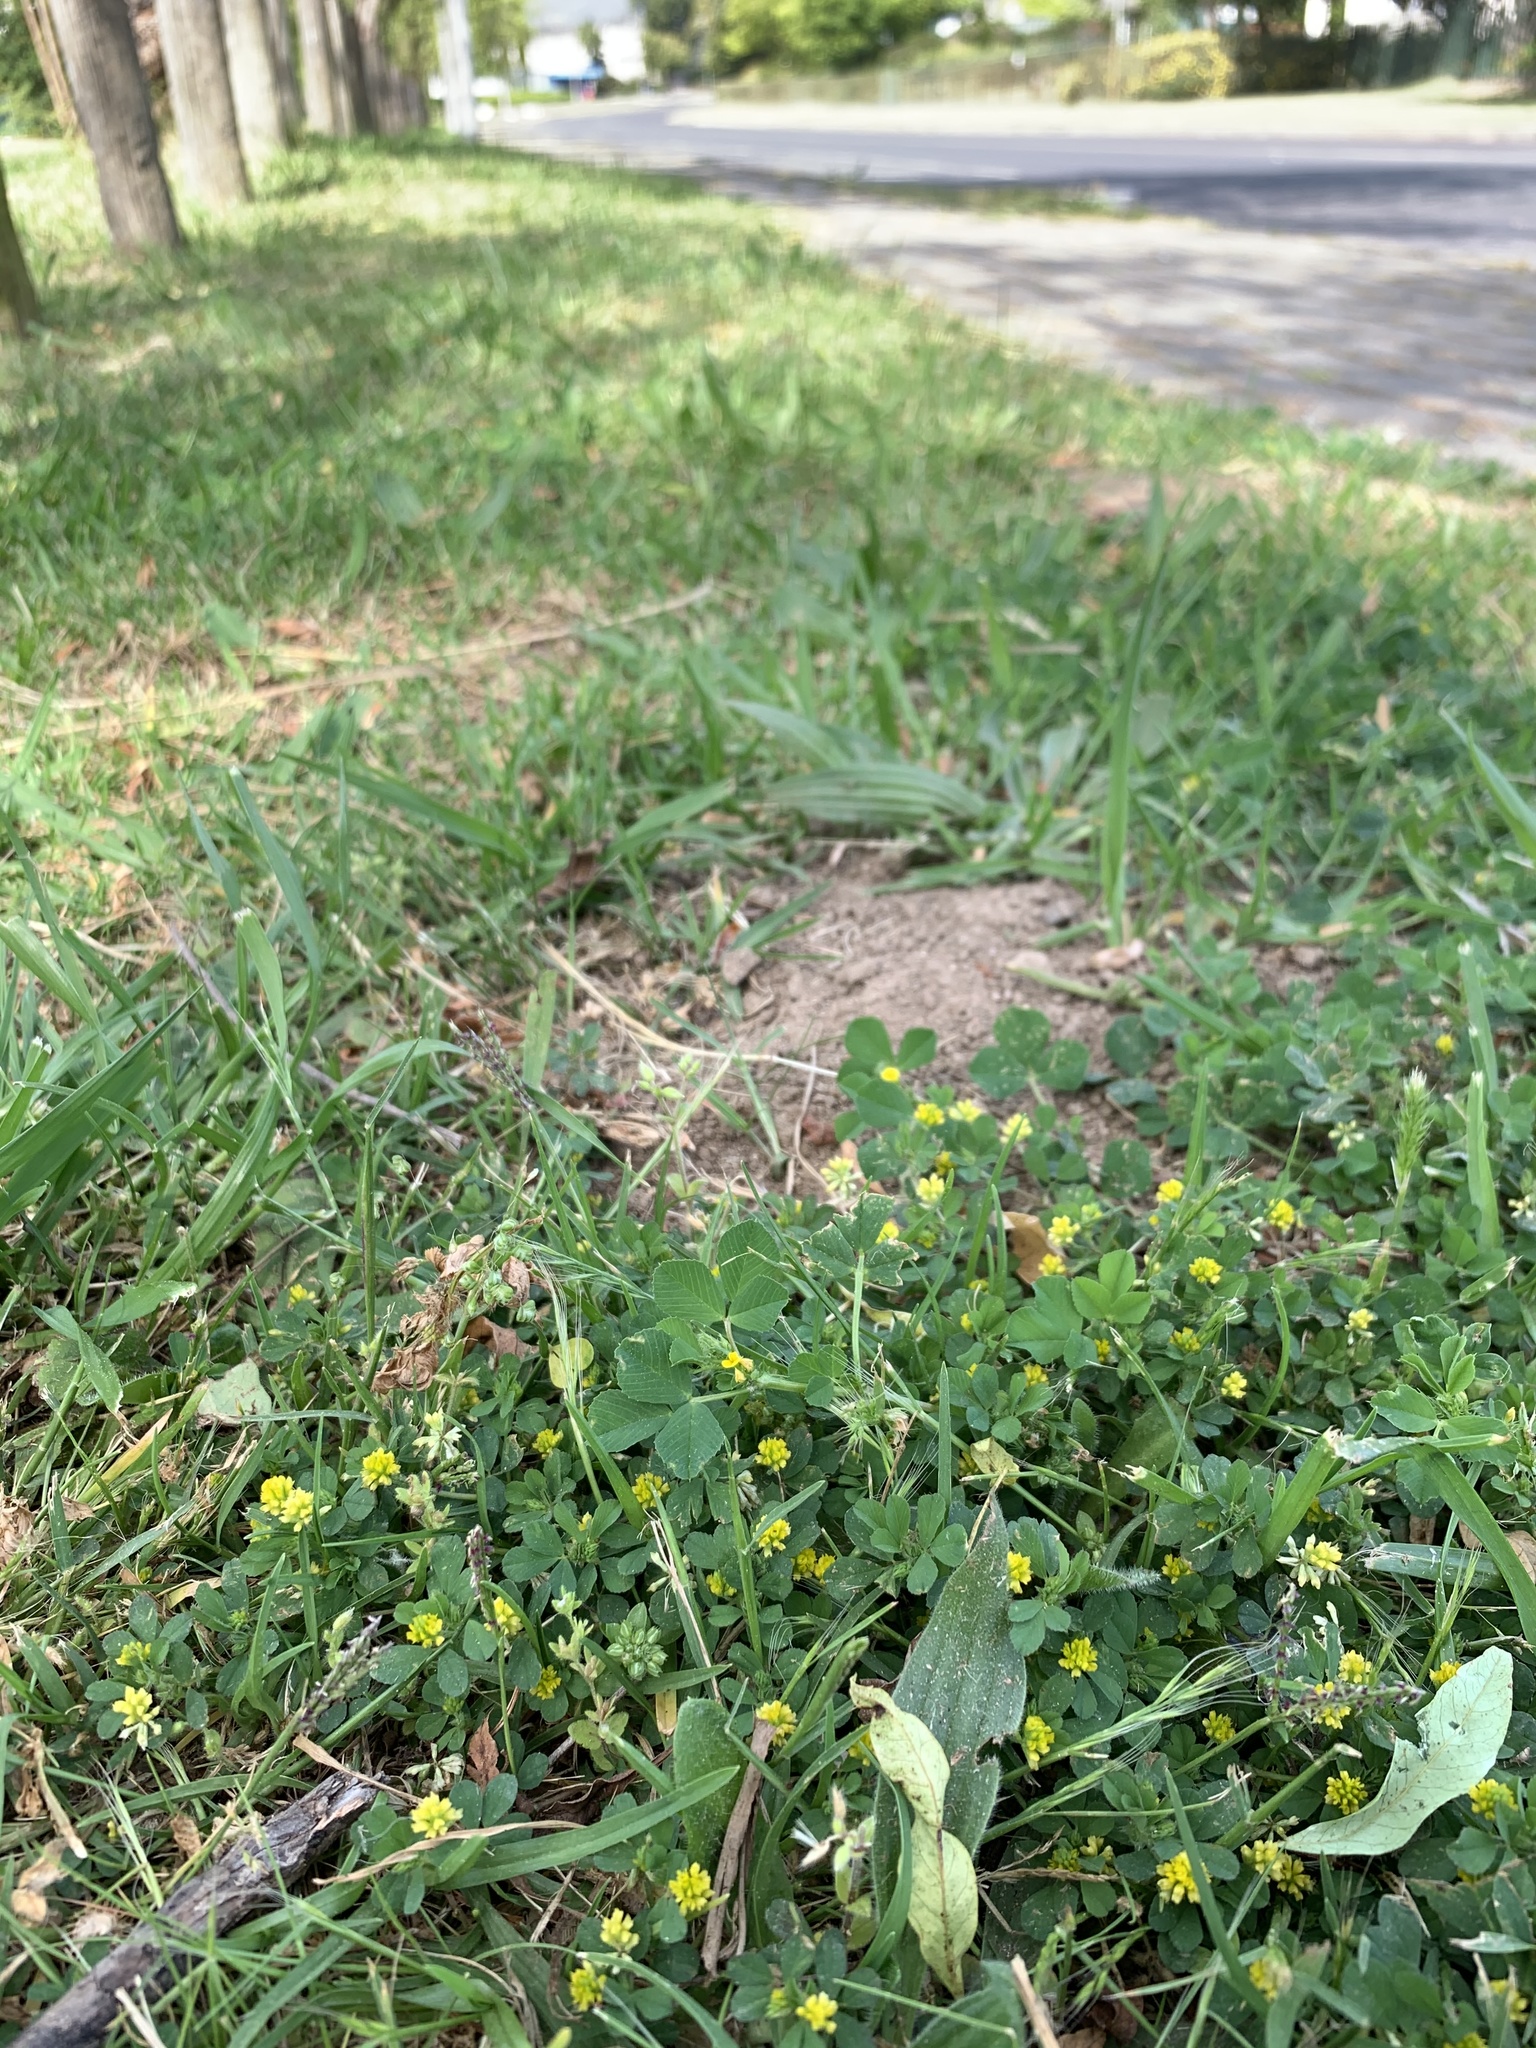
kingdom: Plantae
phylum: Tracheophyta
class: Magnoliopsida
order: Fabales
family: Fabaceae
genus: Trifolium
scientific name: Trifolium dubium
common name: Suckling clover
